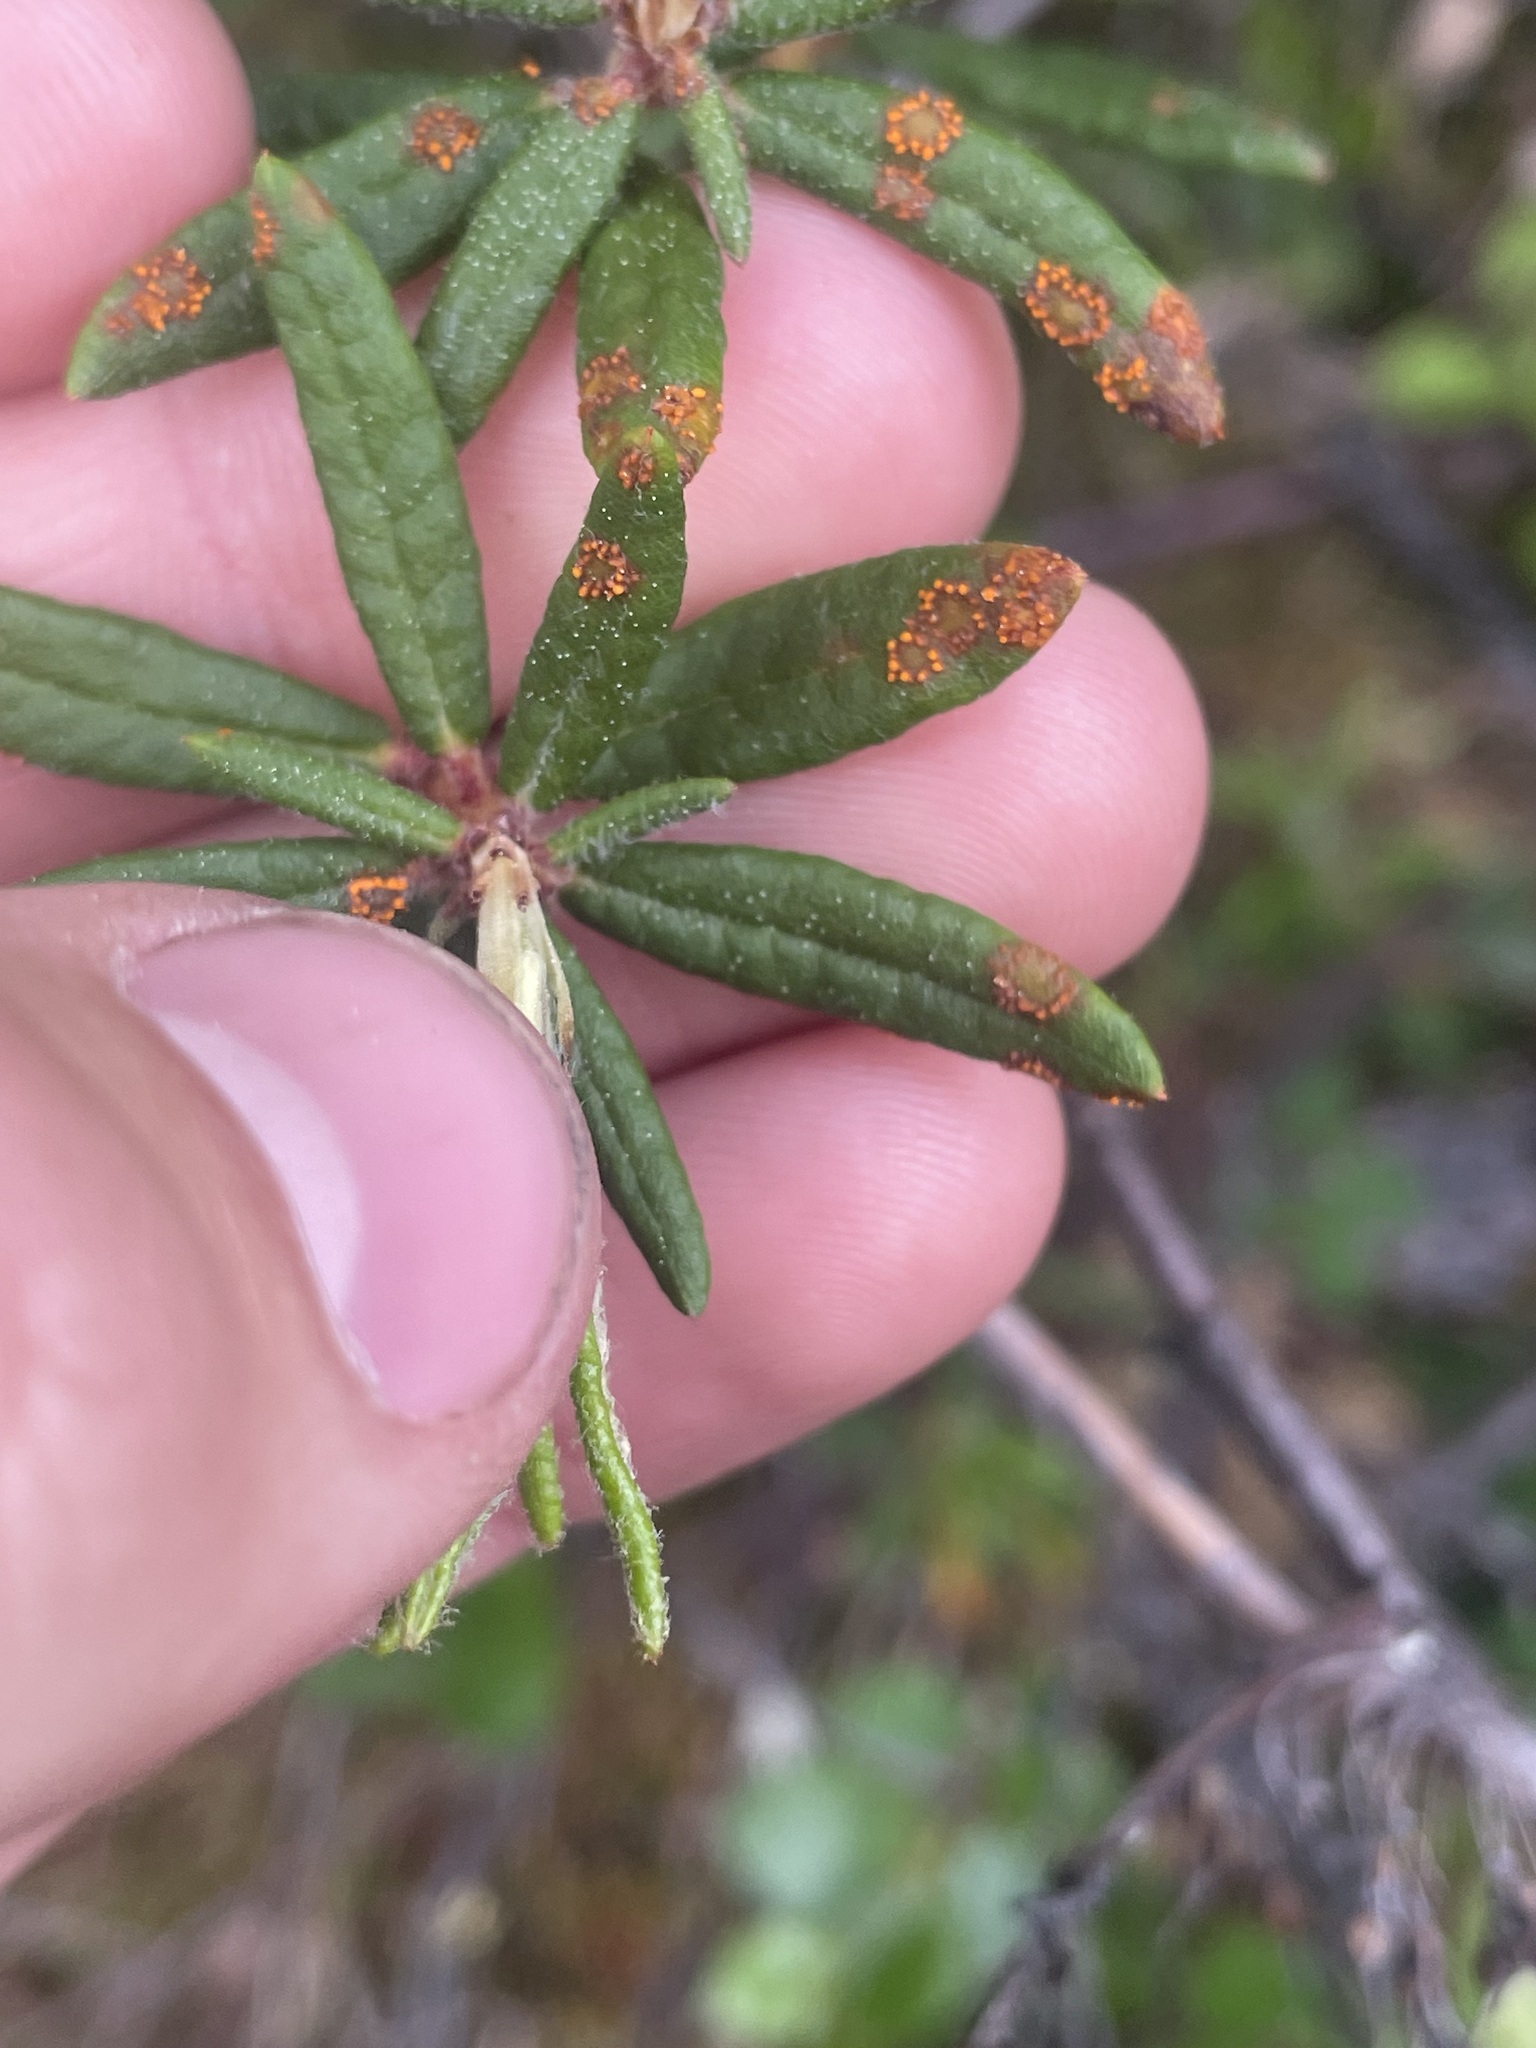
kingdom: Fungi
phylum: Basidiomycota
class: Pucciniomycetes
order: Pucciniales
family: Coleosporiaceae
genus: Chrysomyxa
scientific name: Chrysomyxa ledicola
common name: Spruce-labrador tea needle rust
